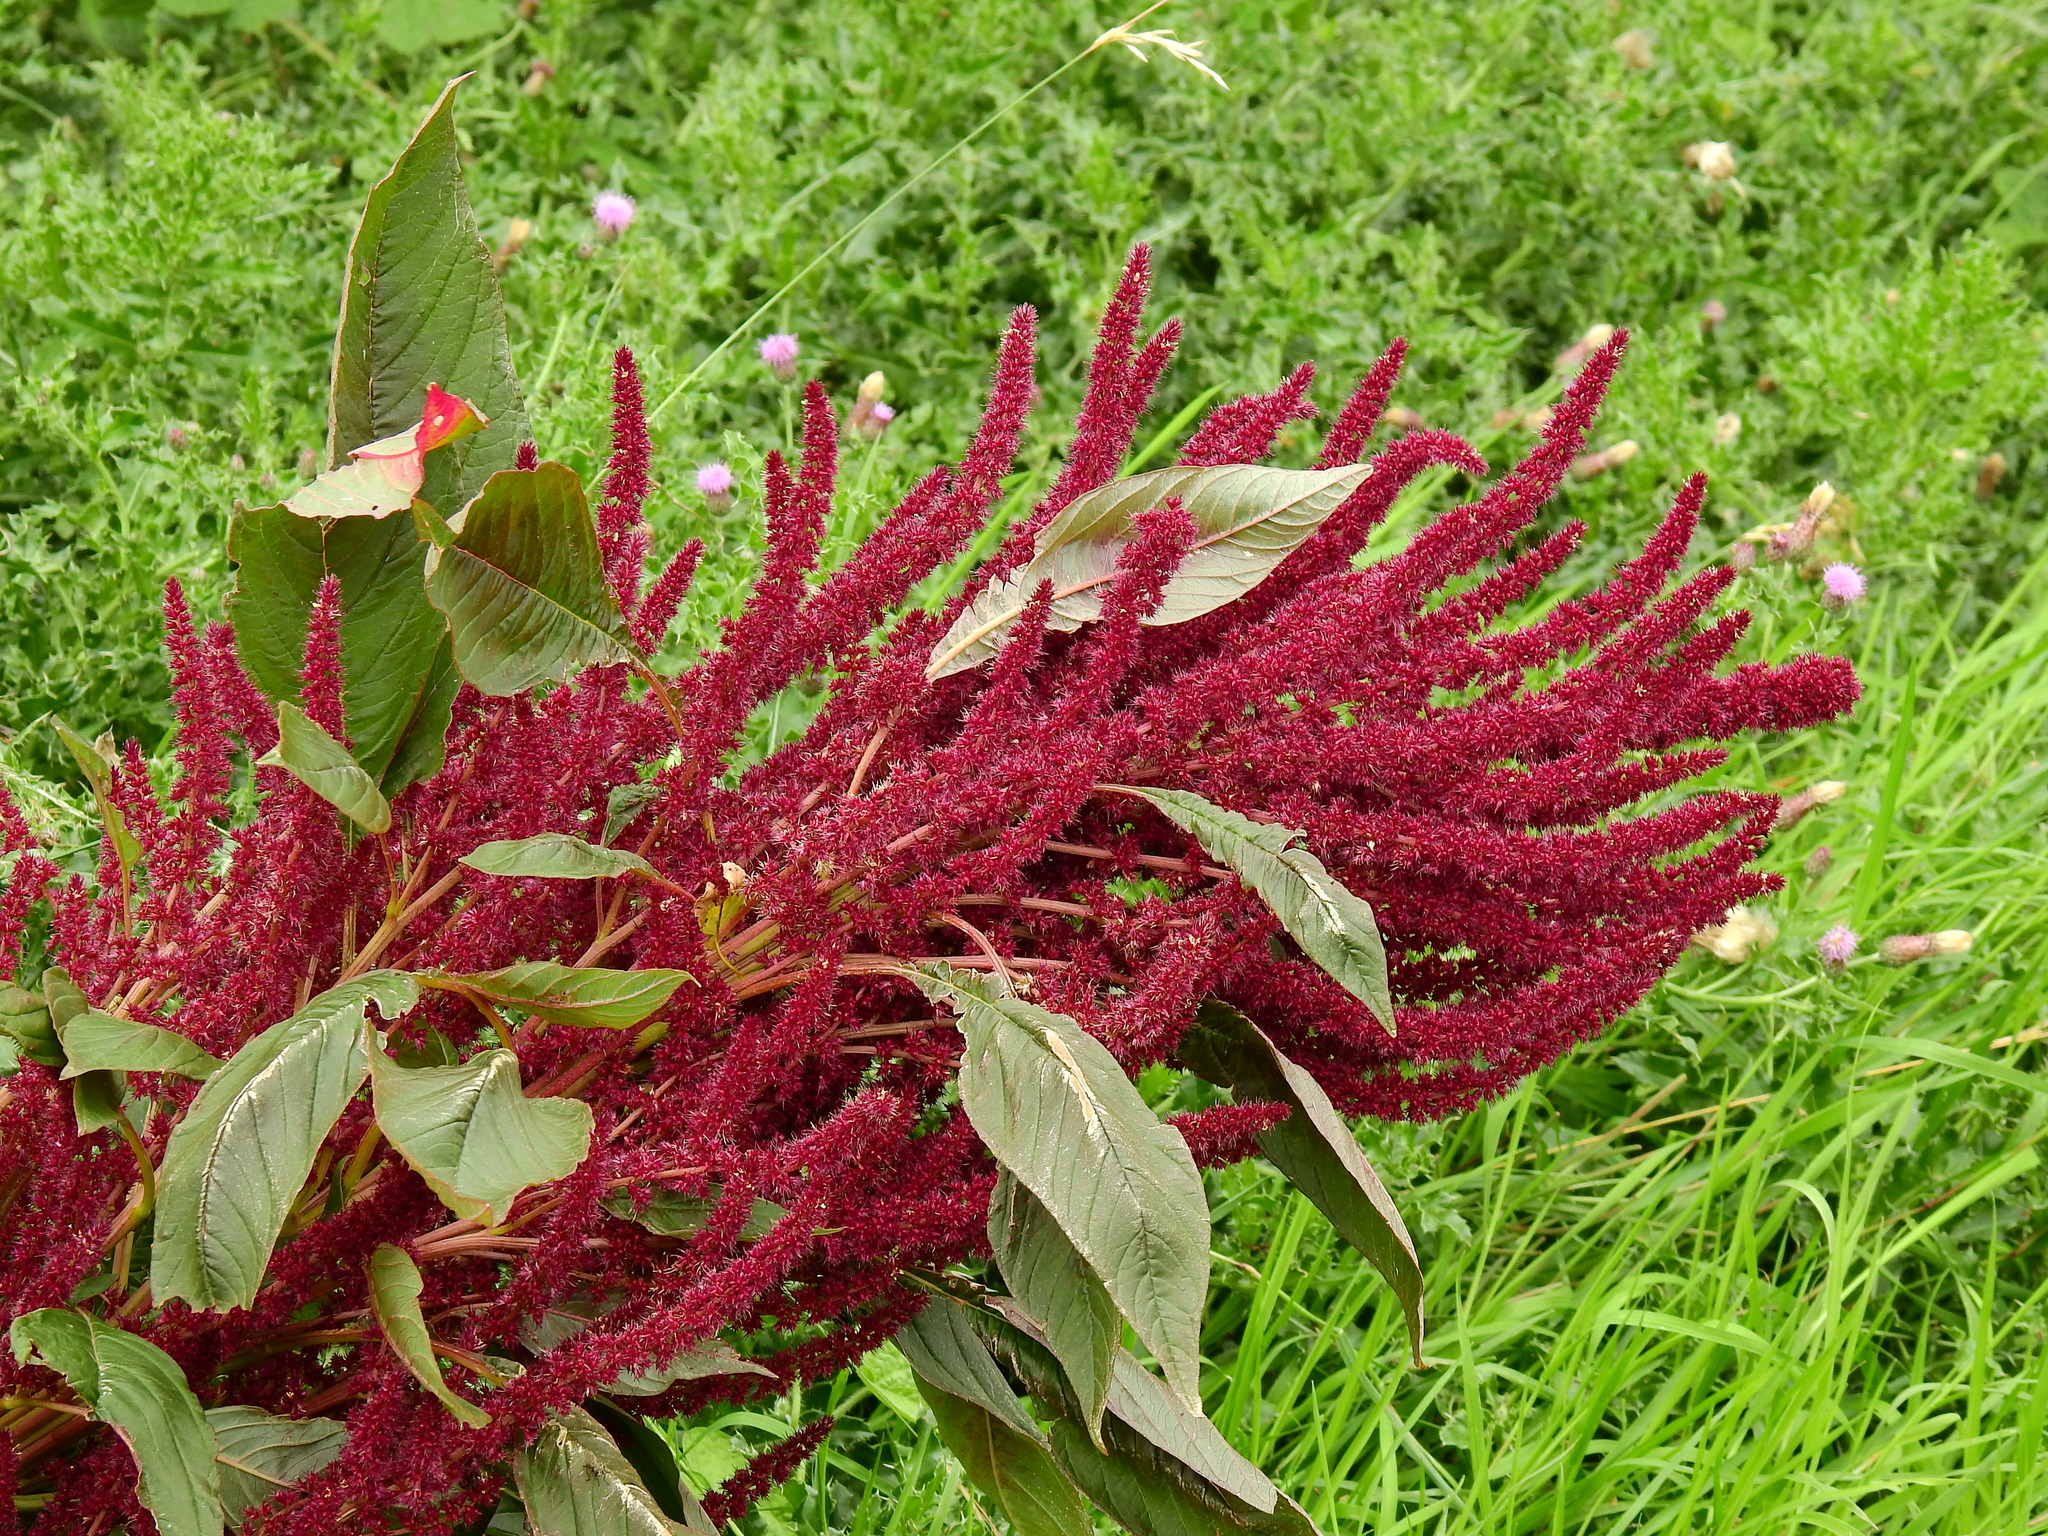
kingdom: Plantae
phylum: Tracheophyta
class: Magnoliopsida
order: Caryophyllales
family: Amaranthaceae
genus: Amaranthus
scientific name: Amaranthus cruentus
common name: Purple amaranth
